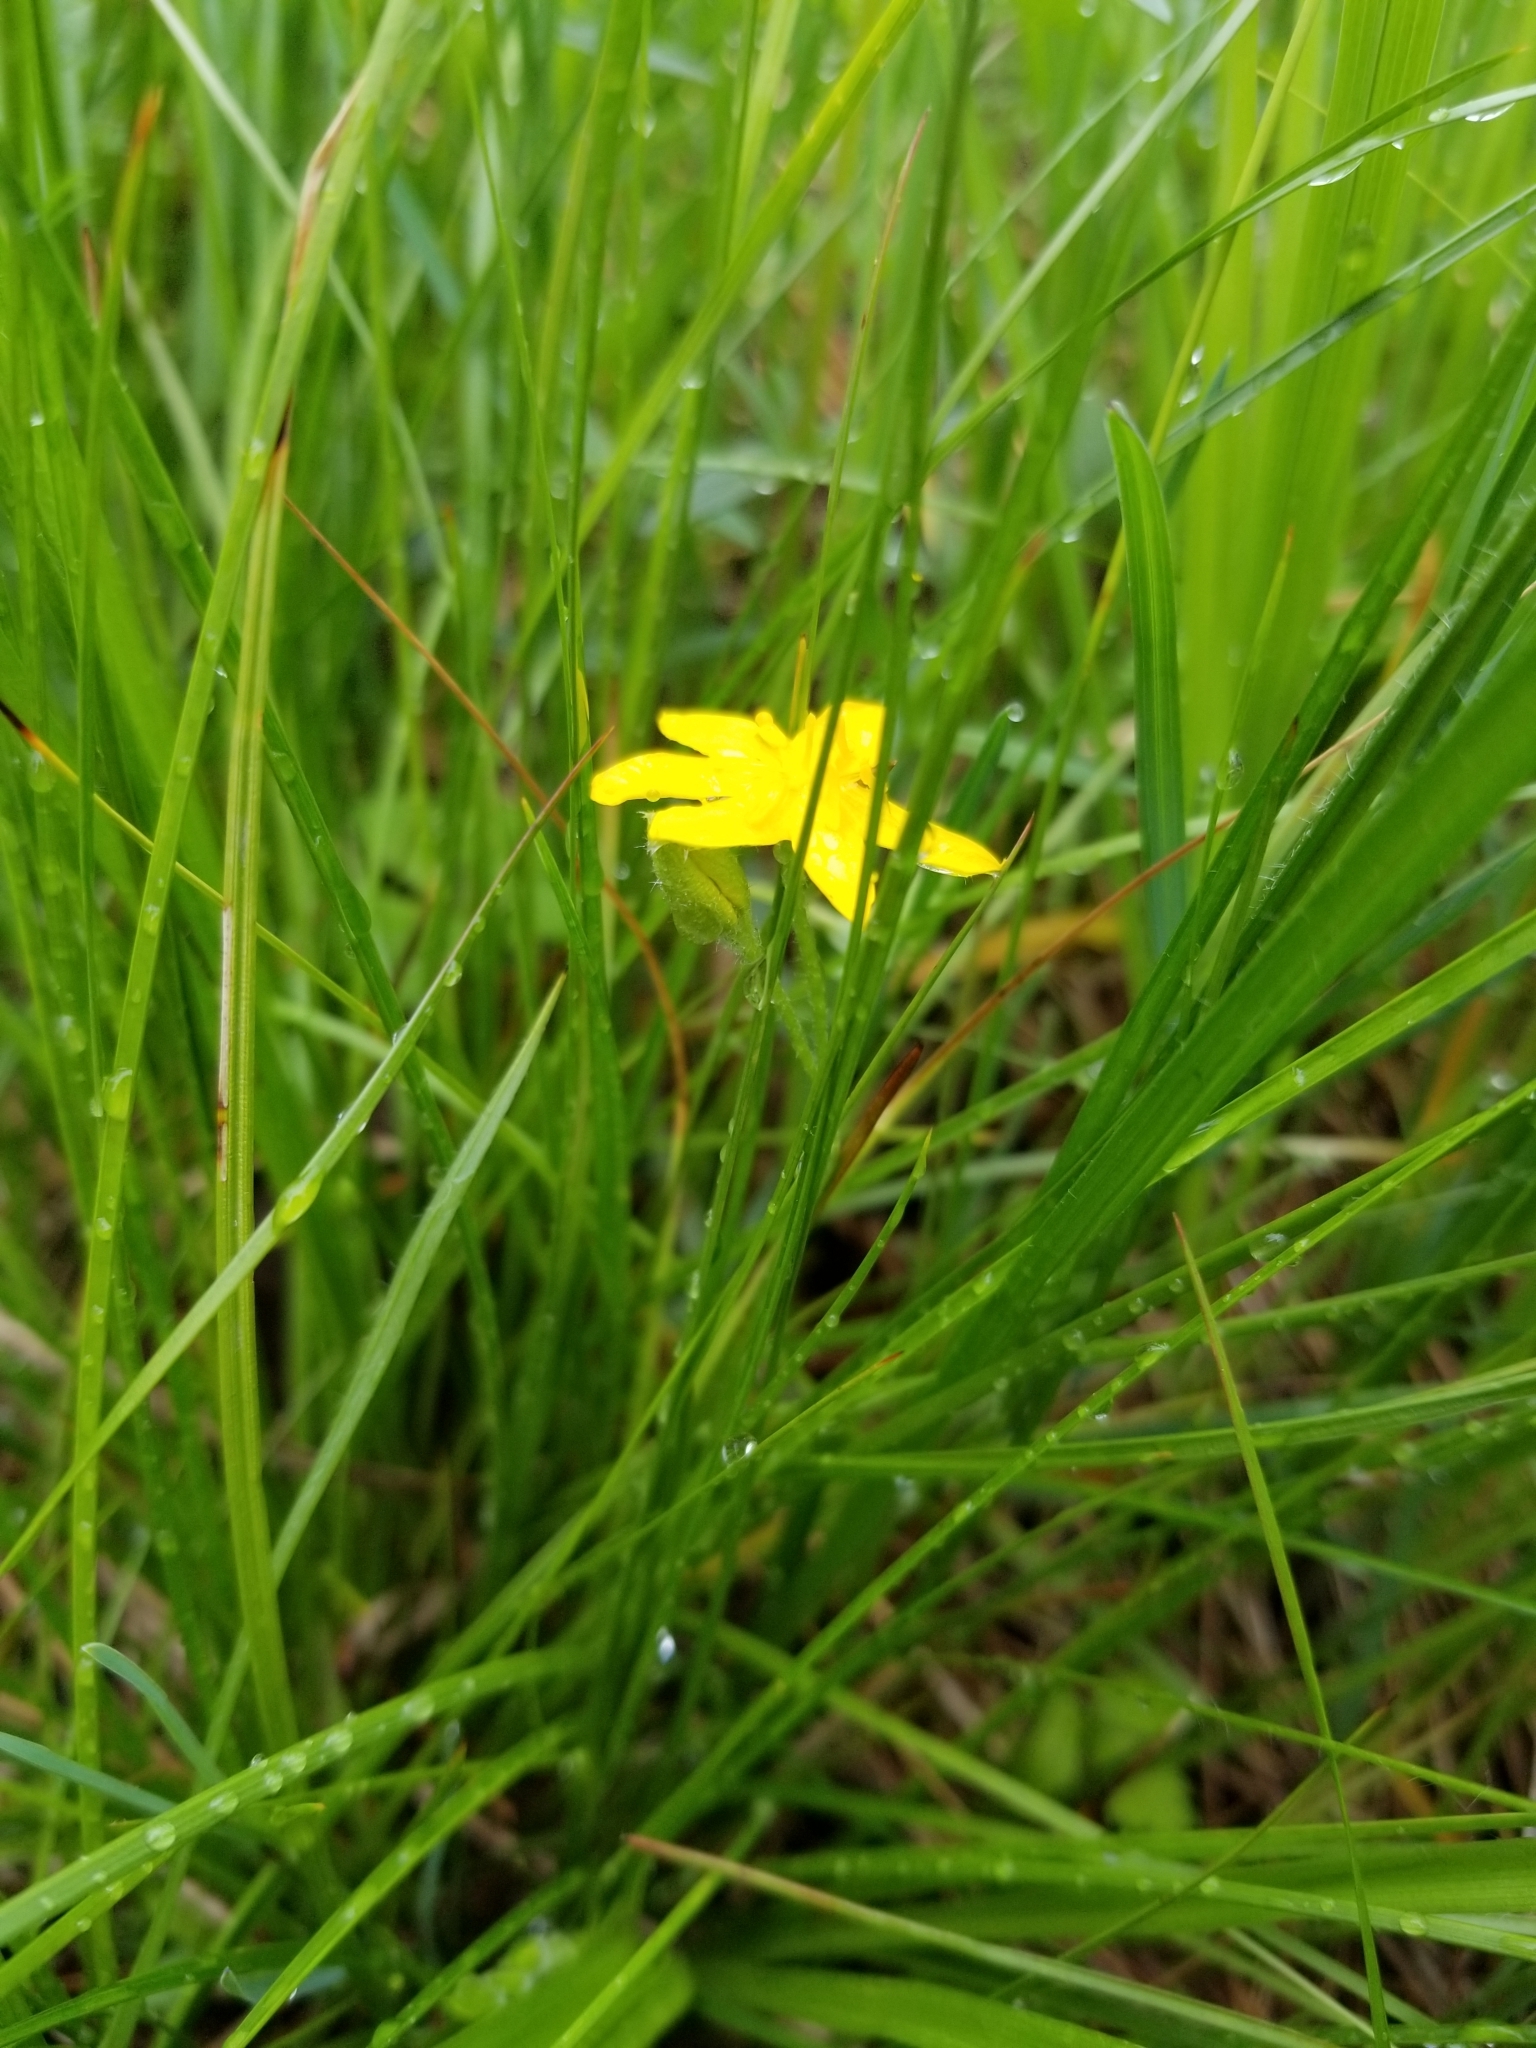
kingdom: Plantae
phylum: Tracheophyta
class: Liliopsida
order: Asparagales
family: Hypoxidaceae
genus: Hypoxis
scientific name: Hypoxis hirsuta
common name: Common goldstar
